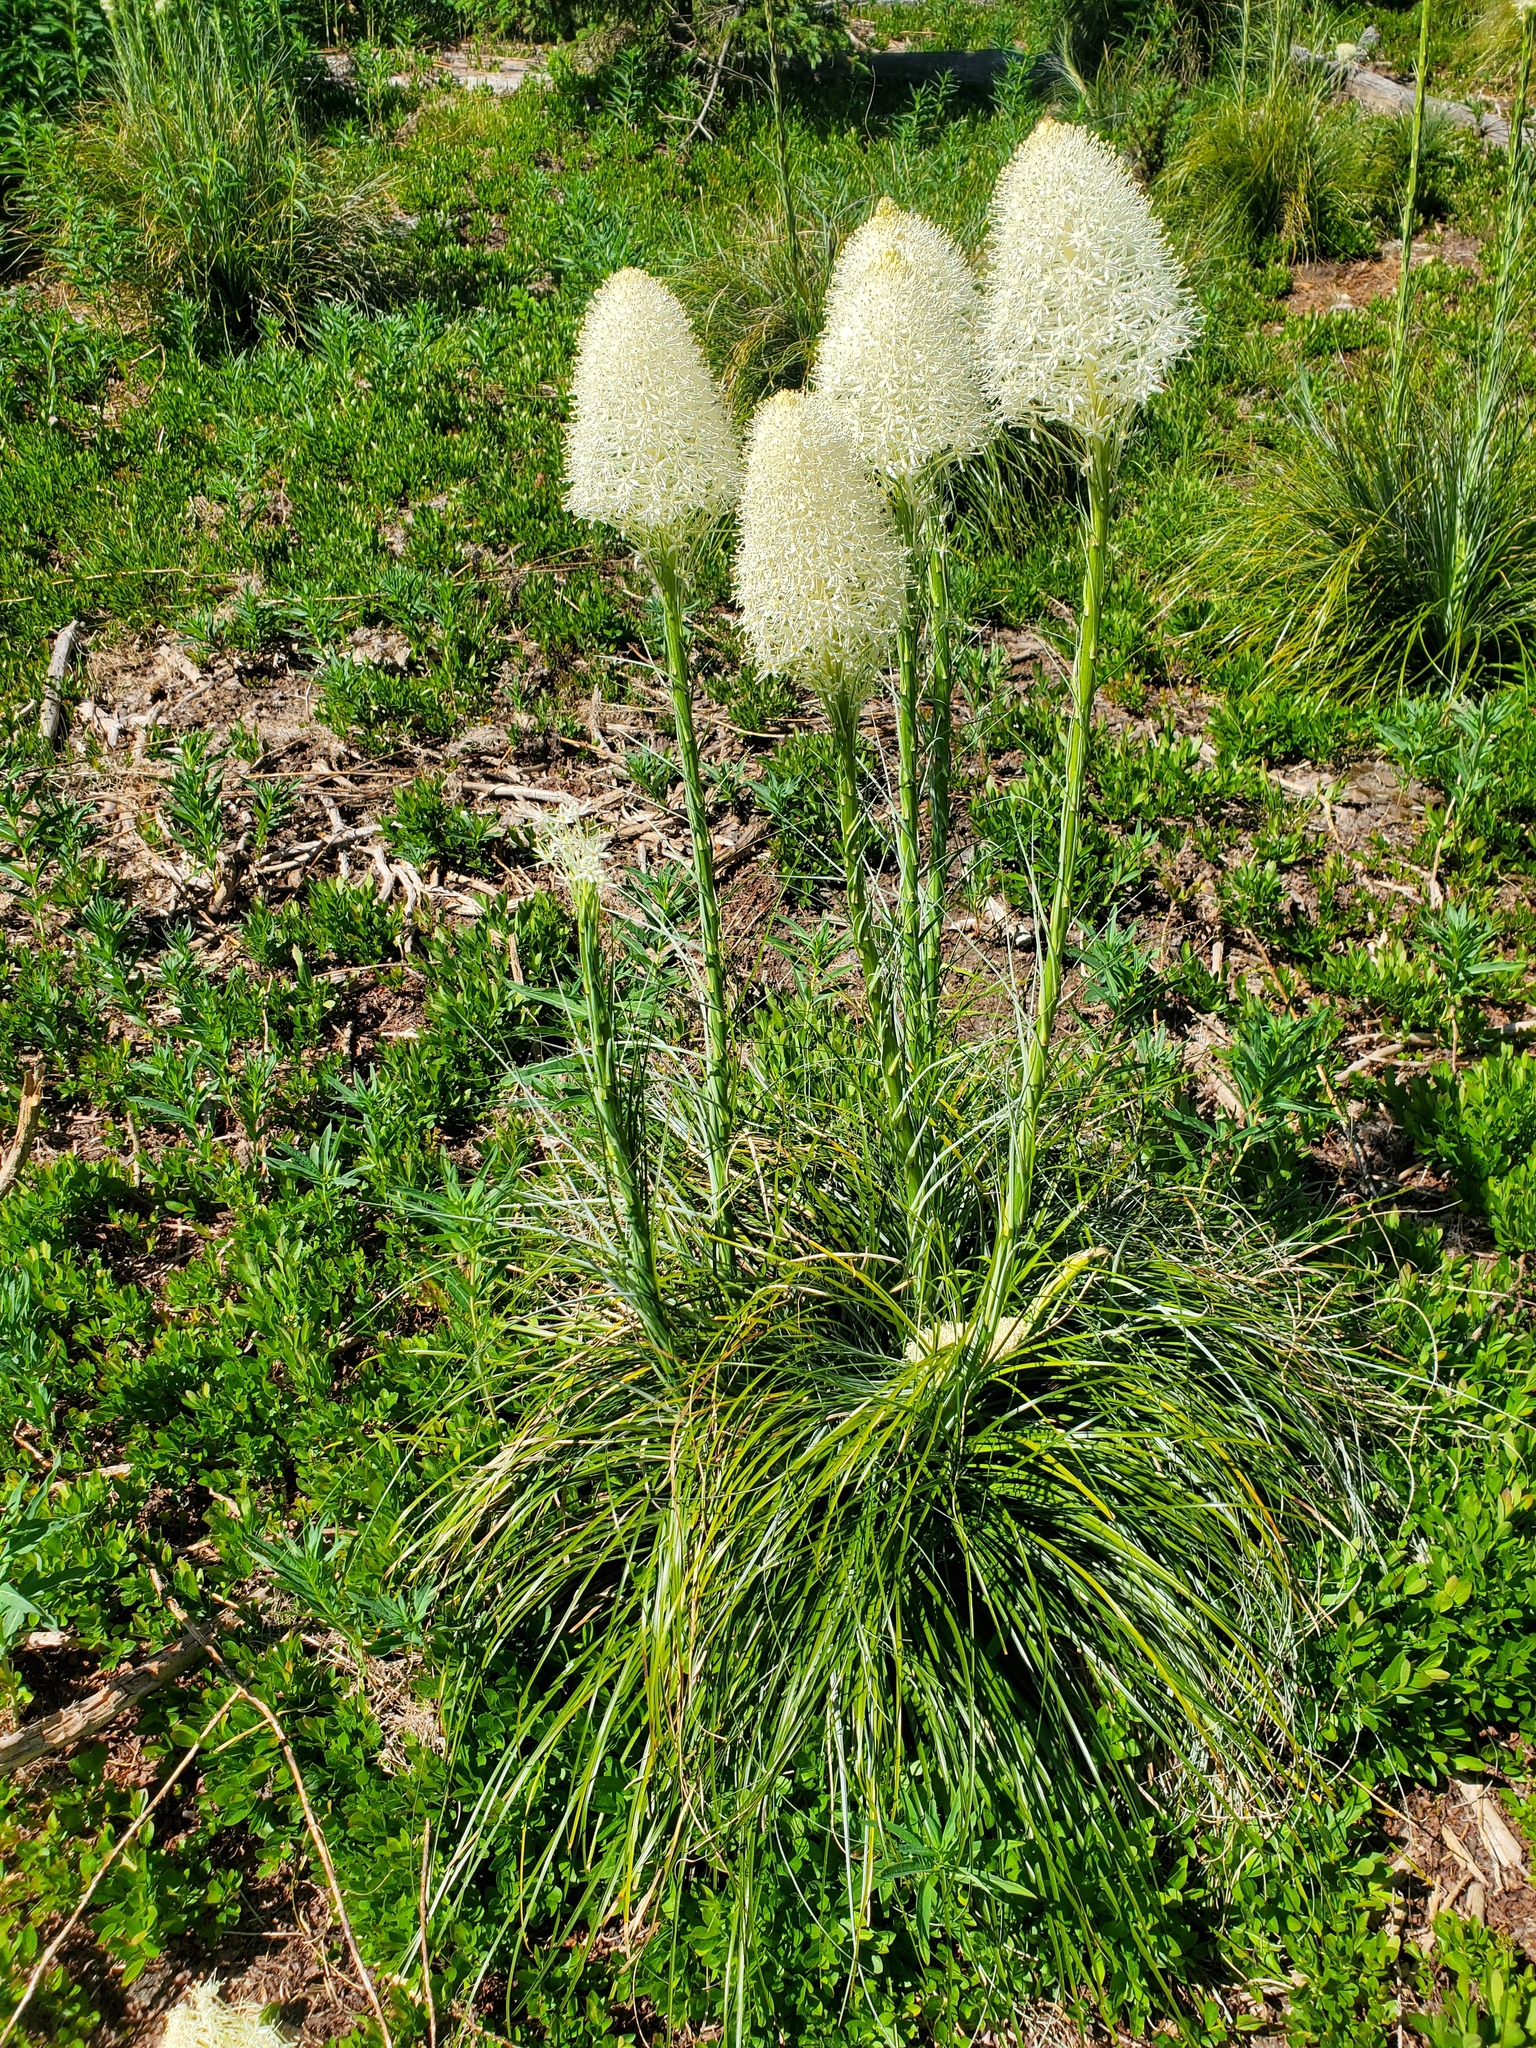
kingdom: Plantae
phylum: Tracheophyta
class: Liliopsida
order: Liliales
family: Melanthiaceae
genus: Xerophyllum
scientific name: Xerophyllum tenax
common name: Bear-grass
